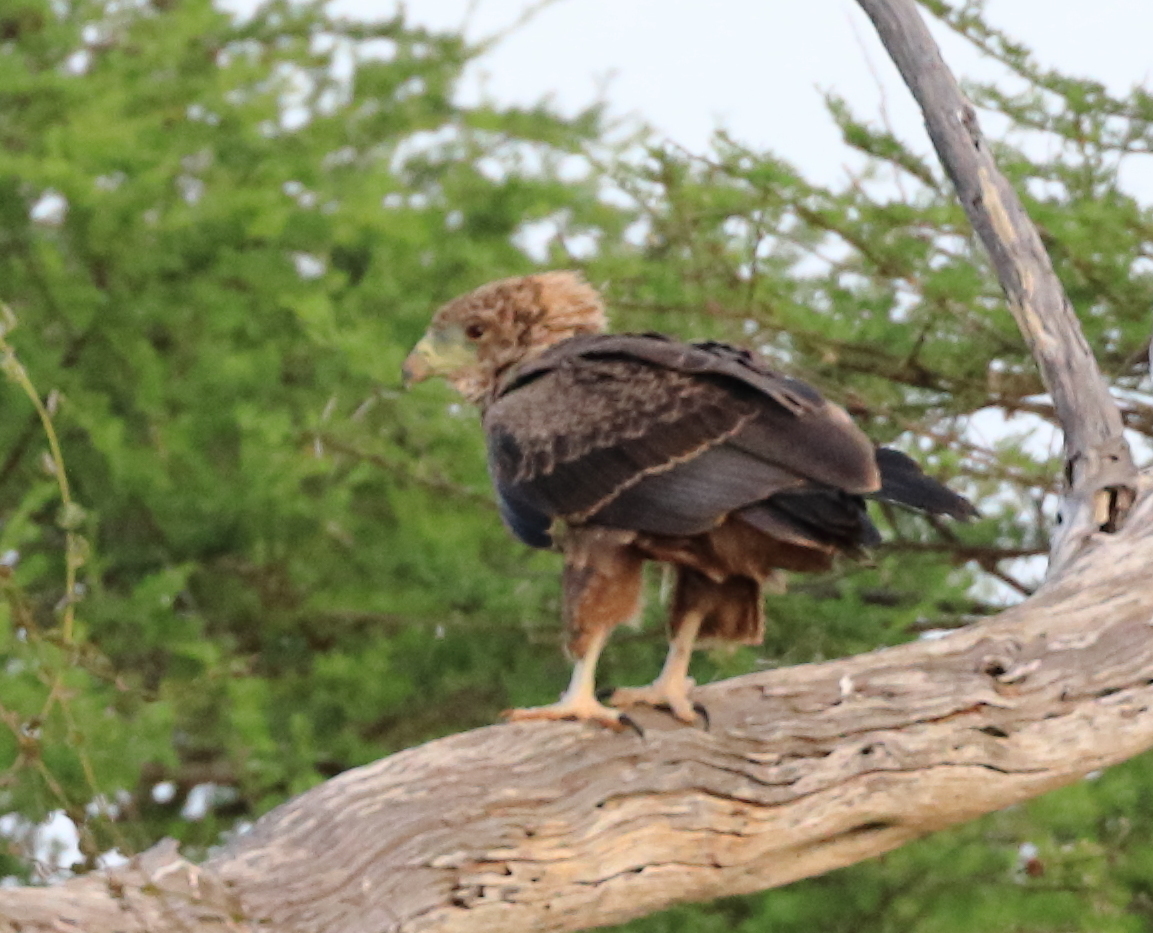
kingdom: Animalia
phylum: Chordata
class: Aves
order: Accipitriformes
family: Accipitridae
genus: Terathopius
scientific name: Terathopius ecaudatus
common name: Bateleur
